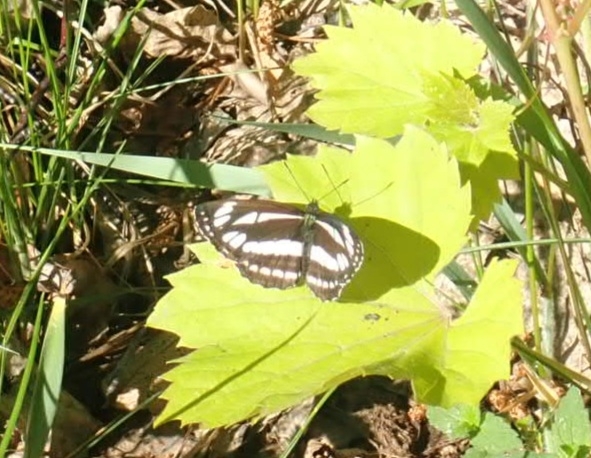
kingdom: Animalia
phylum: Arthropoda
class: Insecta
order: Lepidoptera
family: Nymphalidae
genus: Neptis
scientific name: Neptis sappho
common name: Common glider
